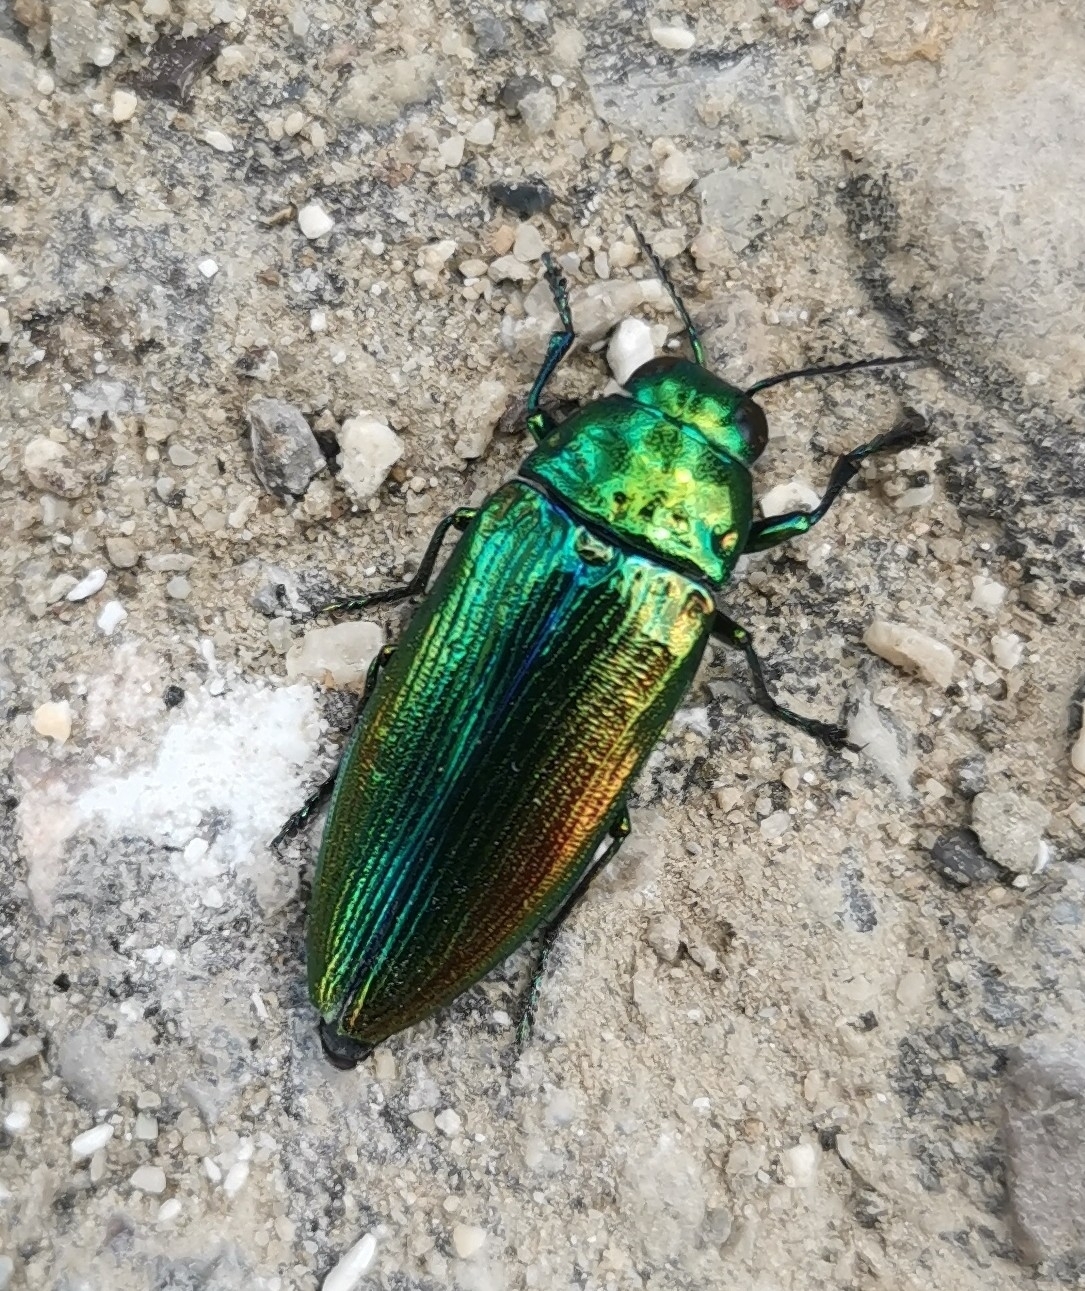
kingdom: Animalia
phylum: Arthropoda
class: Insecta
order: Coleoptera
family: Buprestidae
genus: Eurythyrea
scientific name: Eurythyrea micans
